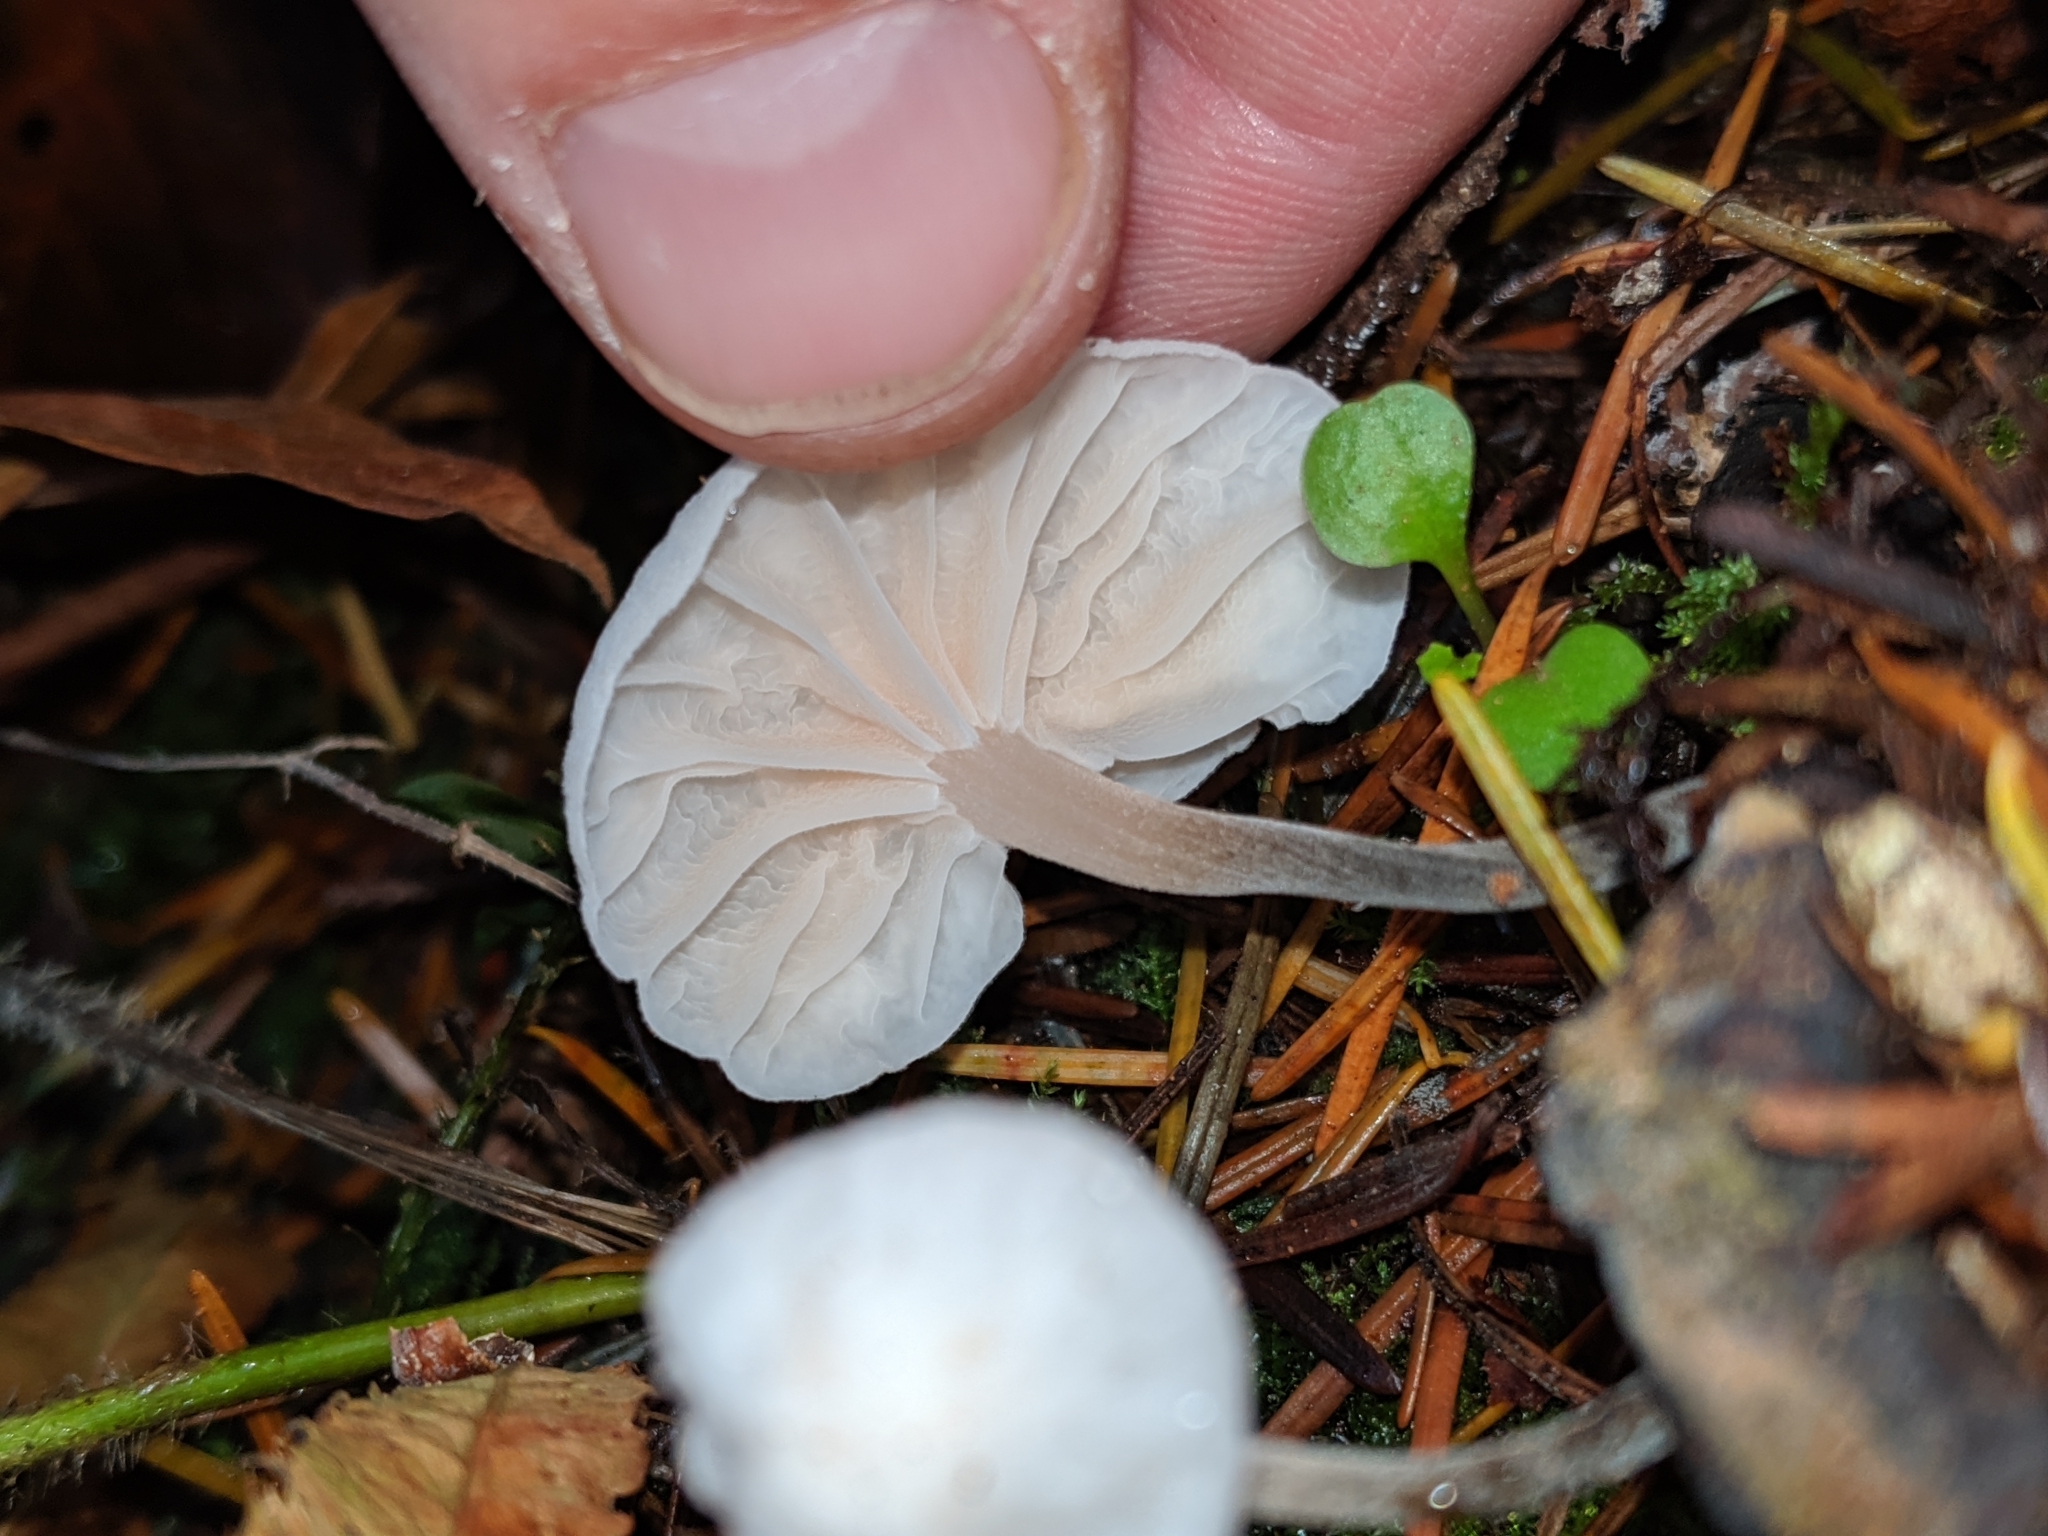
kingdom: Fungi
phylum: Basidiomycota
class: Agaricomycetes
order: Agaricales
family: Omphalotaceae
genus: Marasmiellus
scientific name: Marasmiellus candidus
